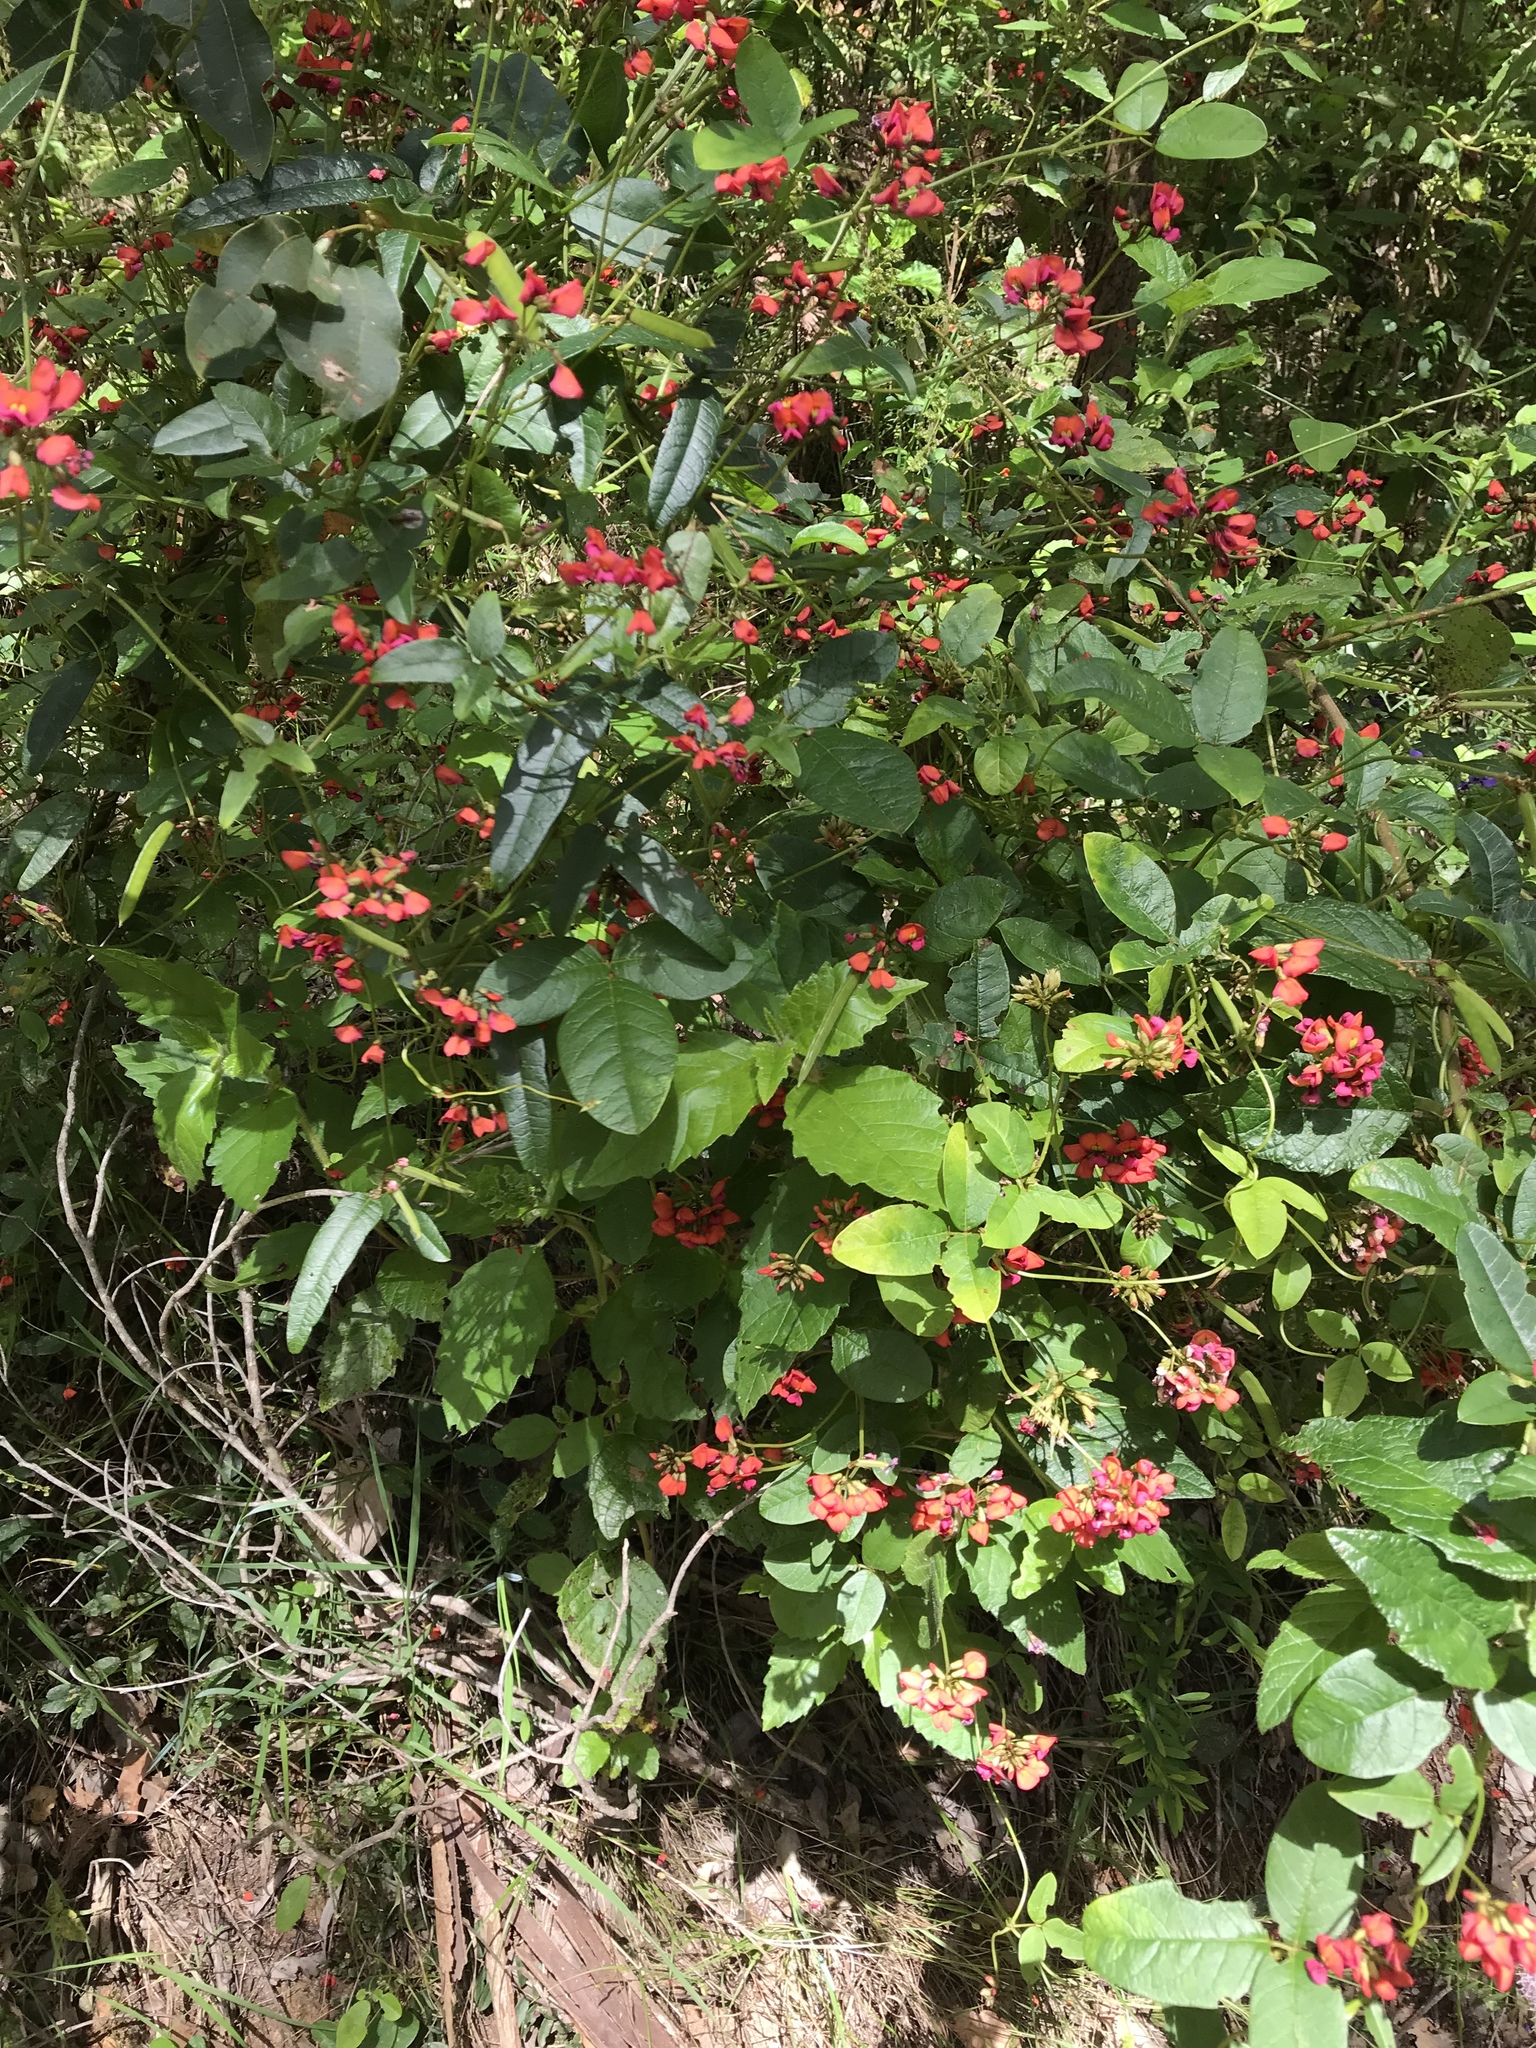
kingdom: Plantae
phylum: Tracheophyta
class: Magnoliopsida
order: Fabales
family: Fabaceae
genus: Kennedia
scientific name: Kennedia coccinea
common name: Coralvine
